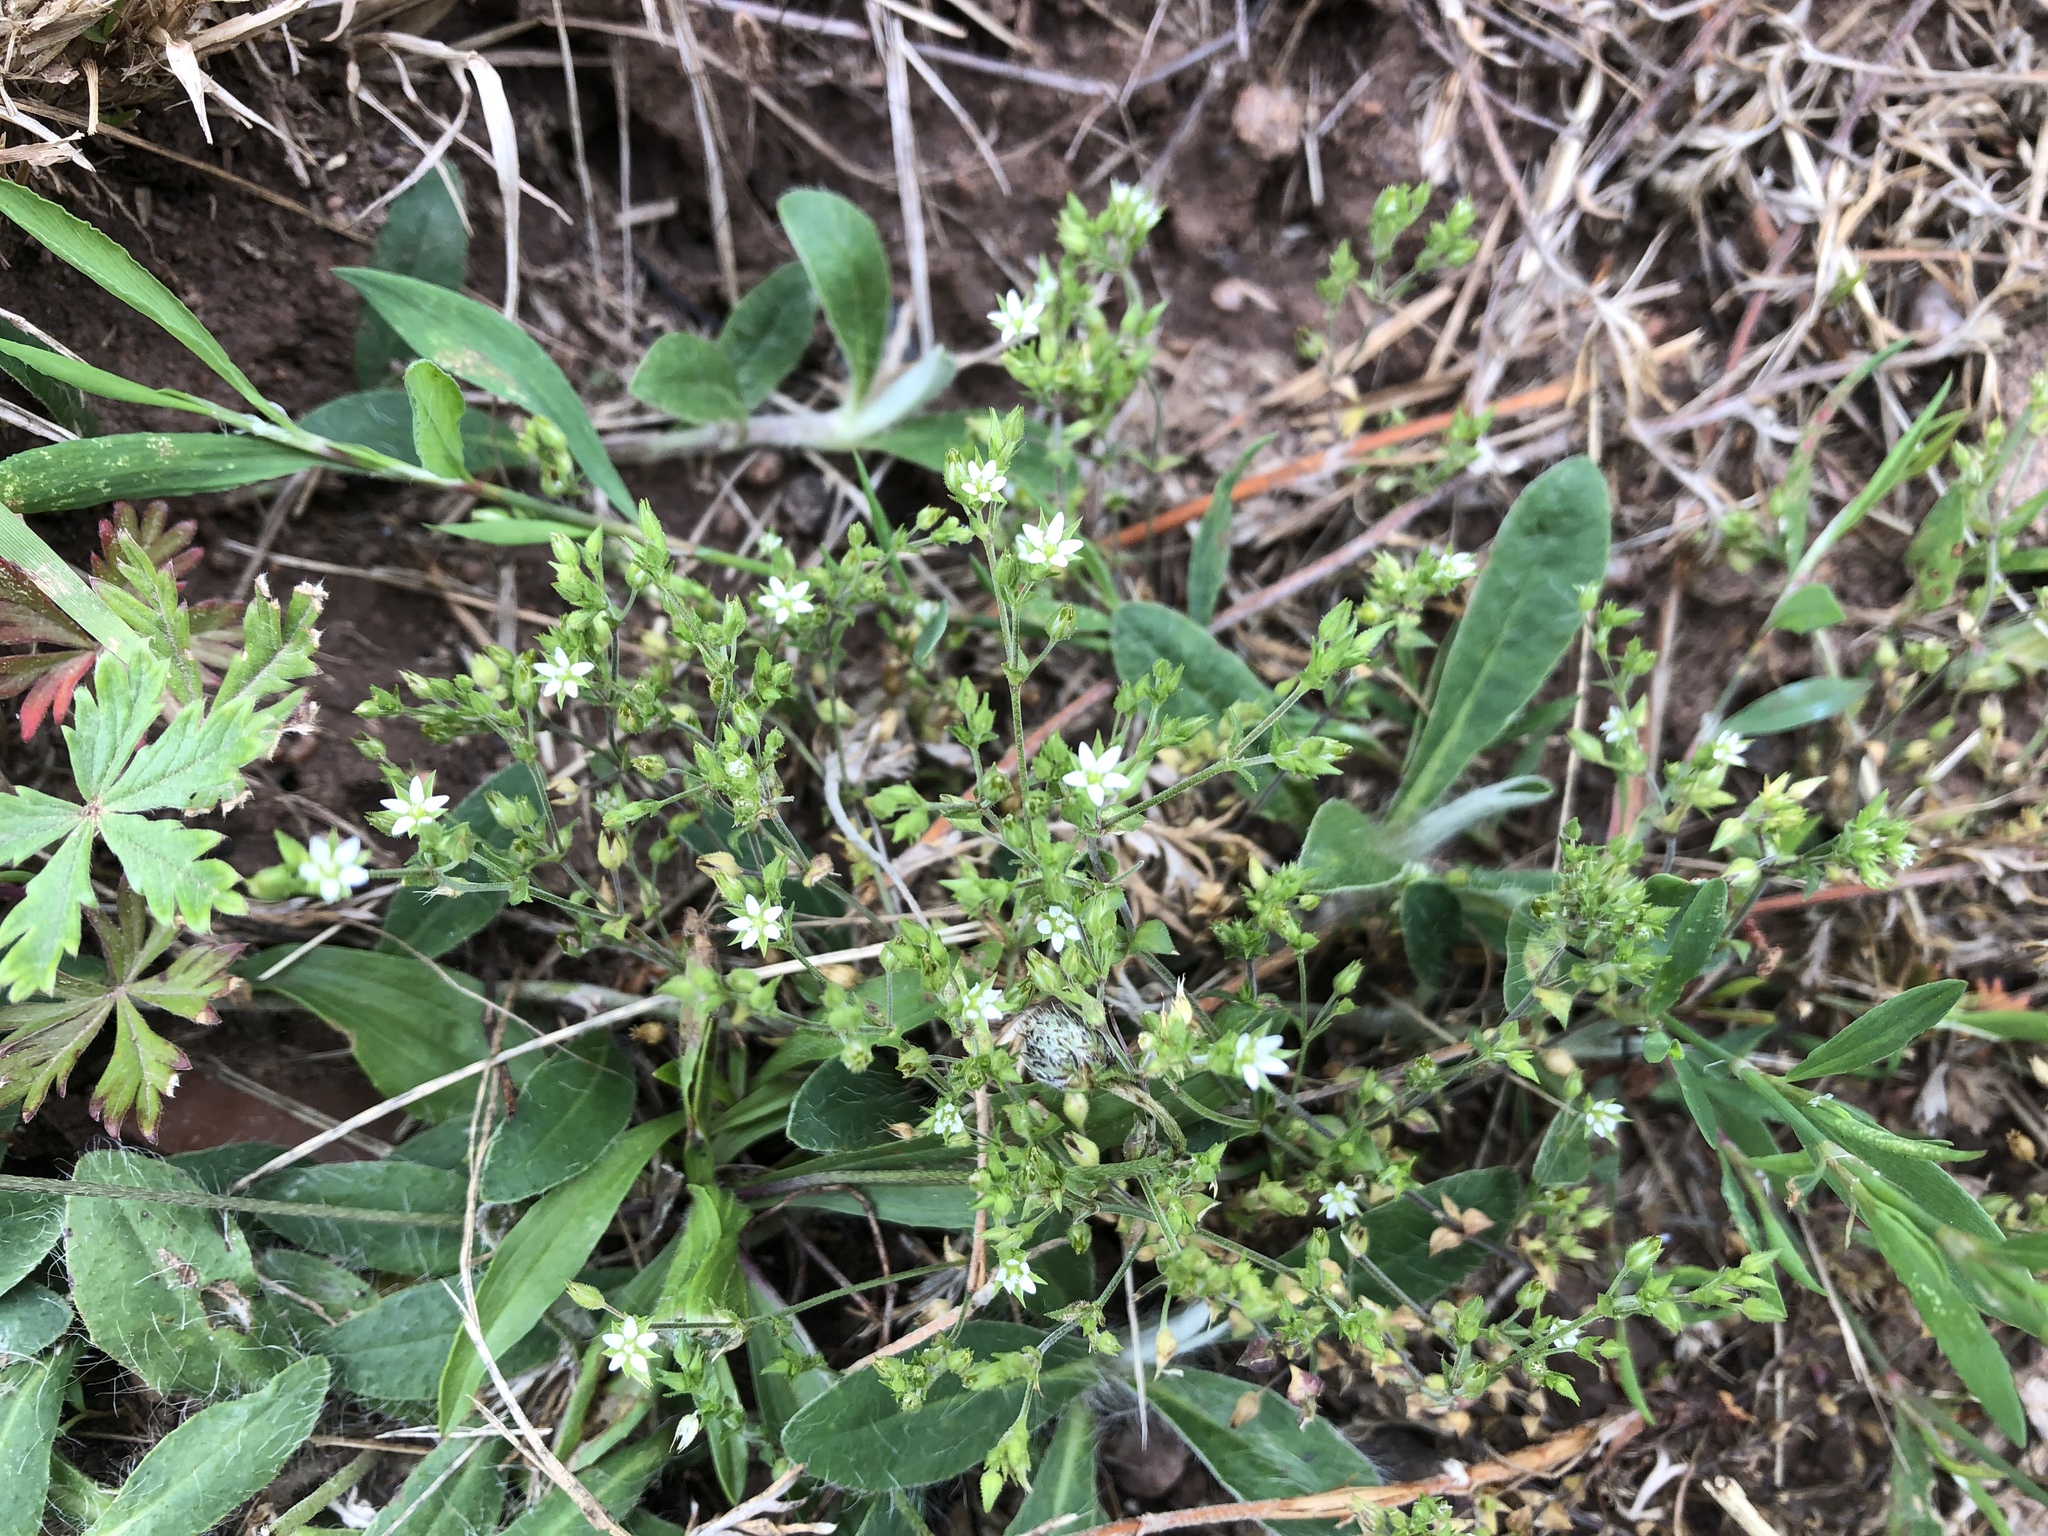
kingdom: Plantae
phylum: Tracheophyta
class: Magnoliopsida
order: Caryophyllales
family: Caryophyllaceae
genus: Arenaria
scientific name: Arenaria serpyllifolia
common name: Thyme-leaved sandwort
